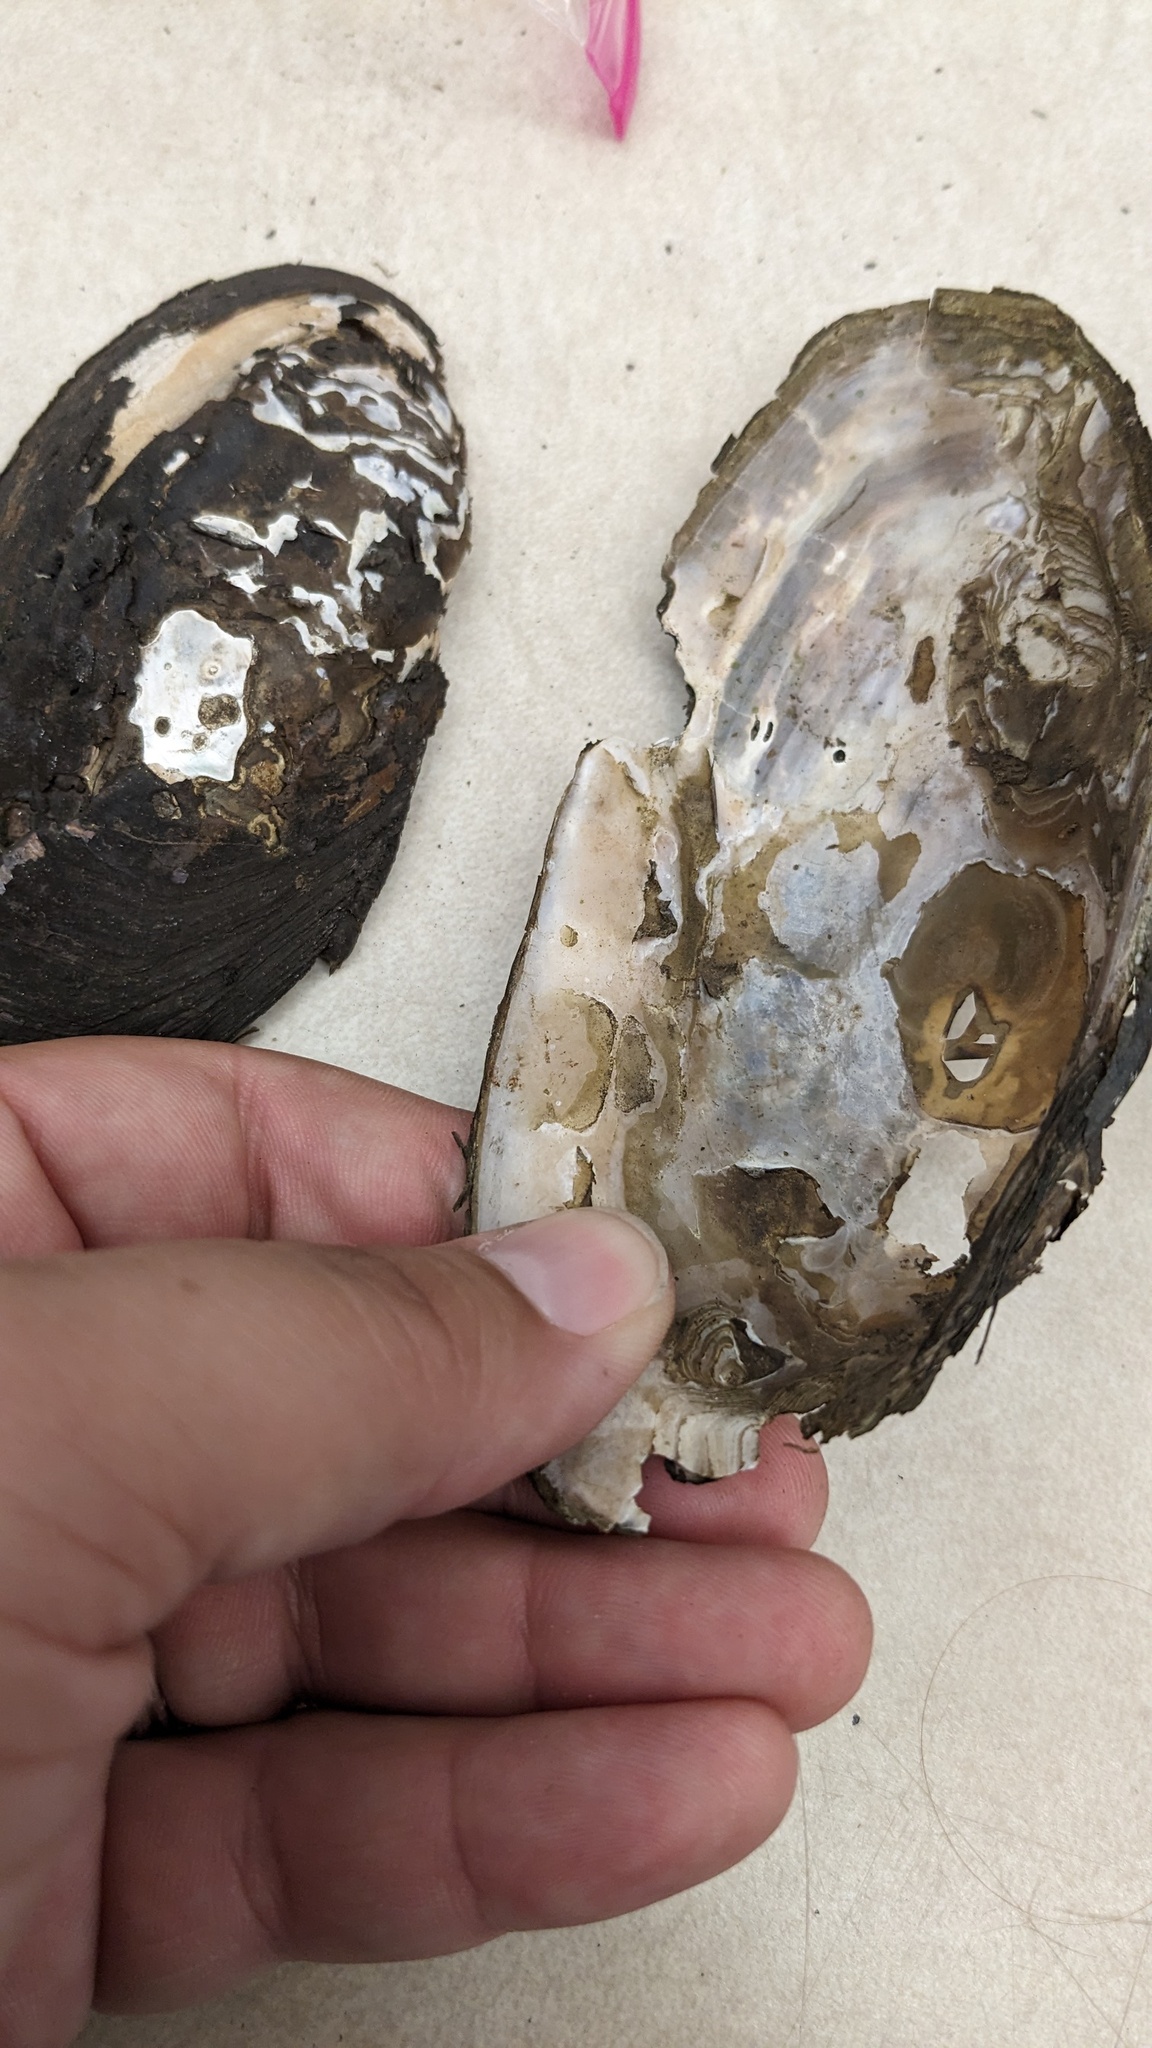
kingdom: Animalia
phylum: Mollusca
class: Bivalvia
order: Unionida
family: Unionidae
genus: Utterbackiana
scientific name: Utterbackiana implicata
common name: Alewife floater
